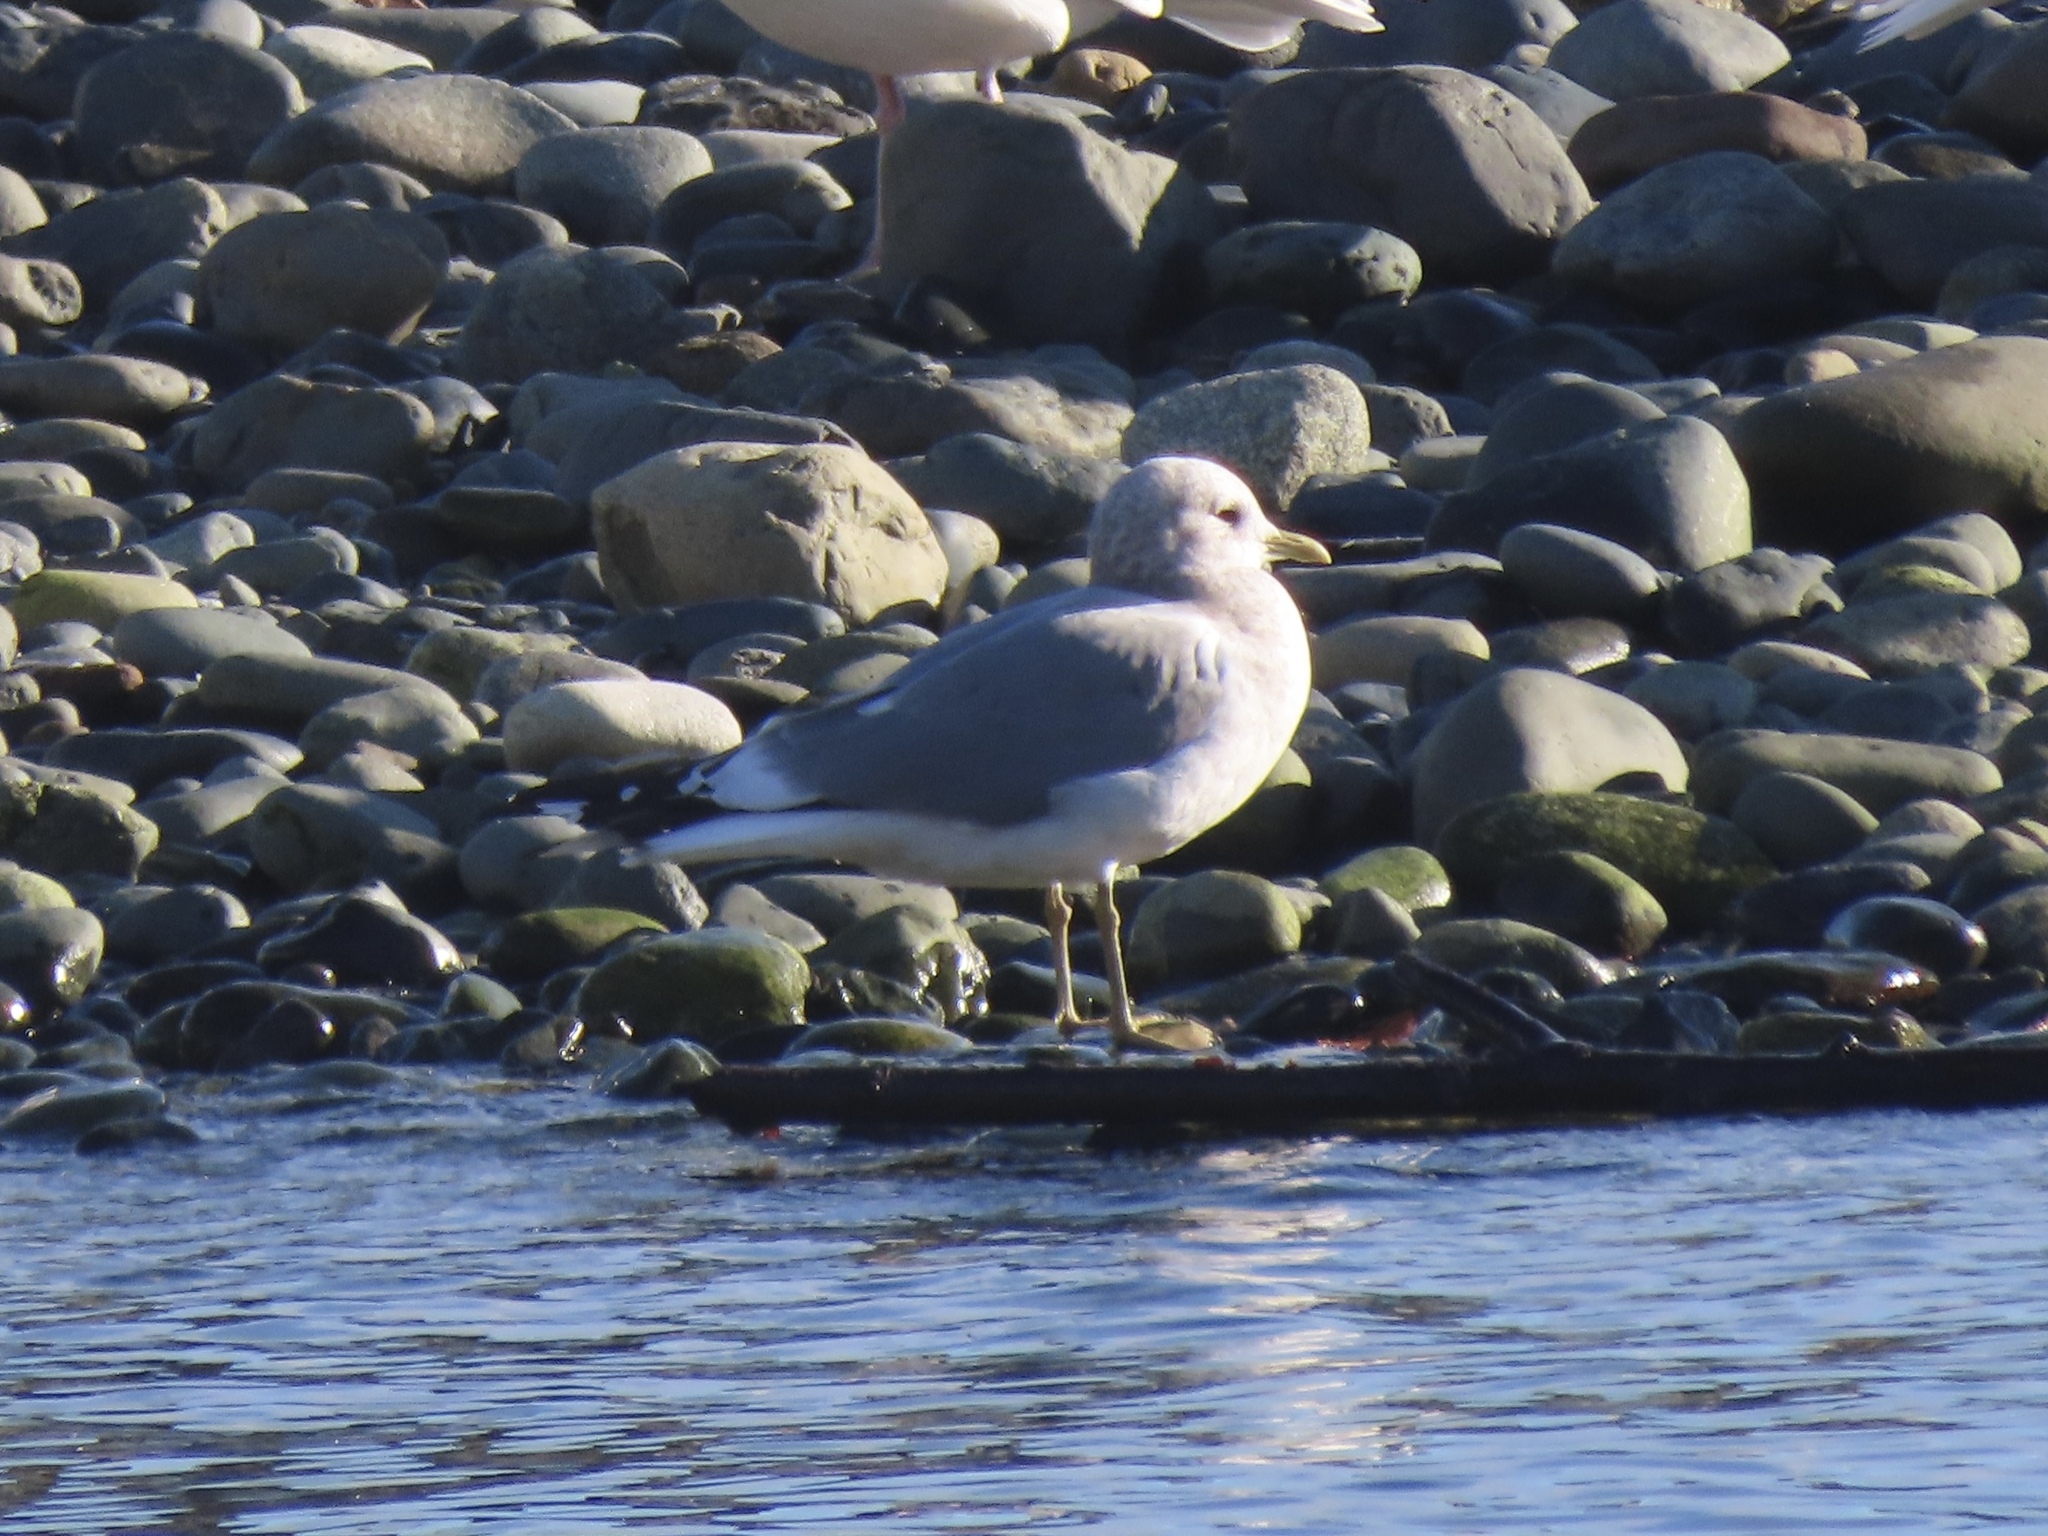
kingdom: Animalia
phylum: Chordata
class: Aves
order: Charadriiformes
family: Laridae
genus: Larus
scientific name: Larus brachyrhynchus
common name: Short-billed gull
